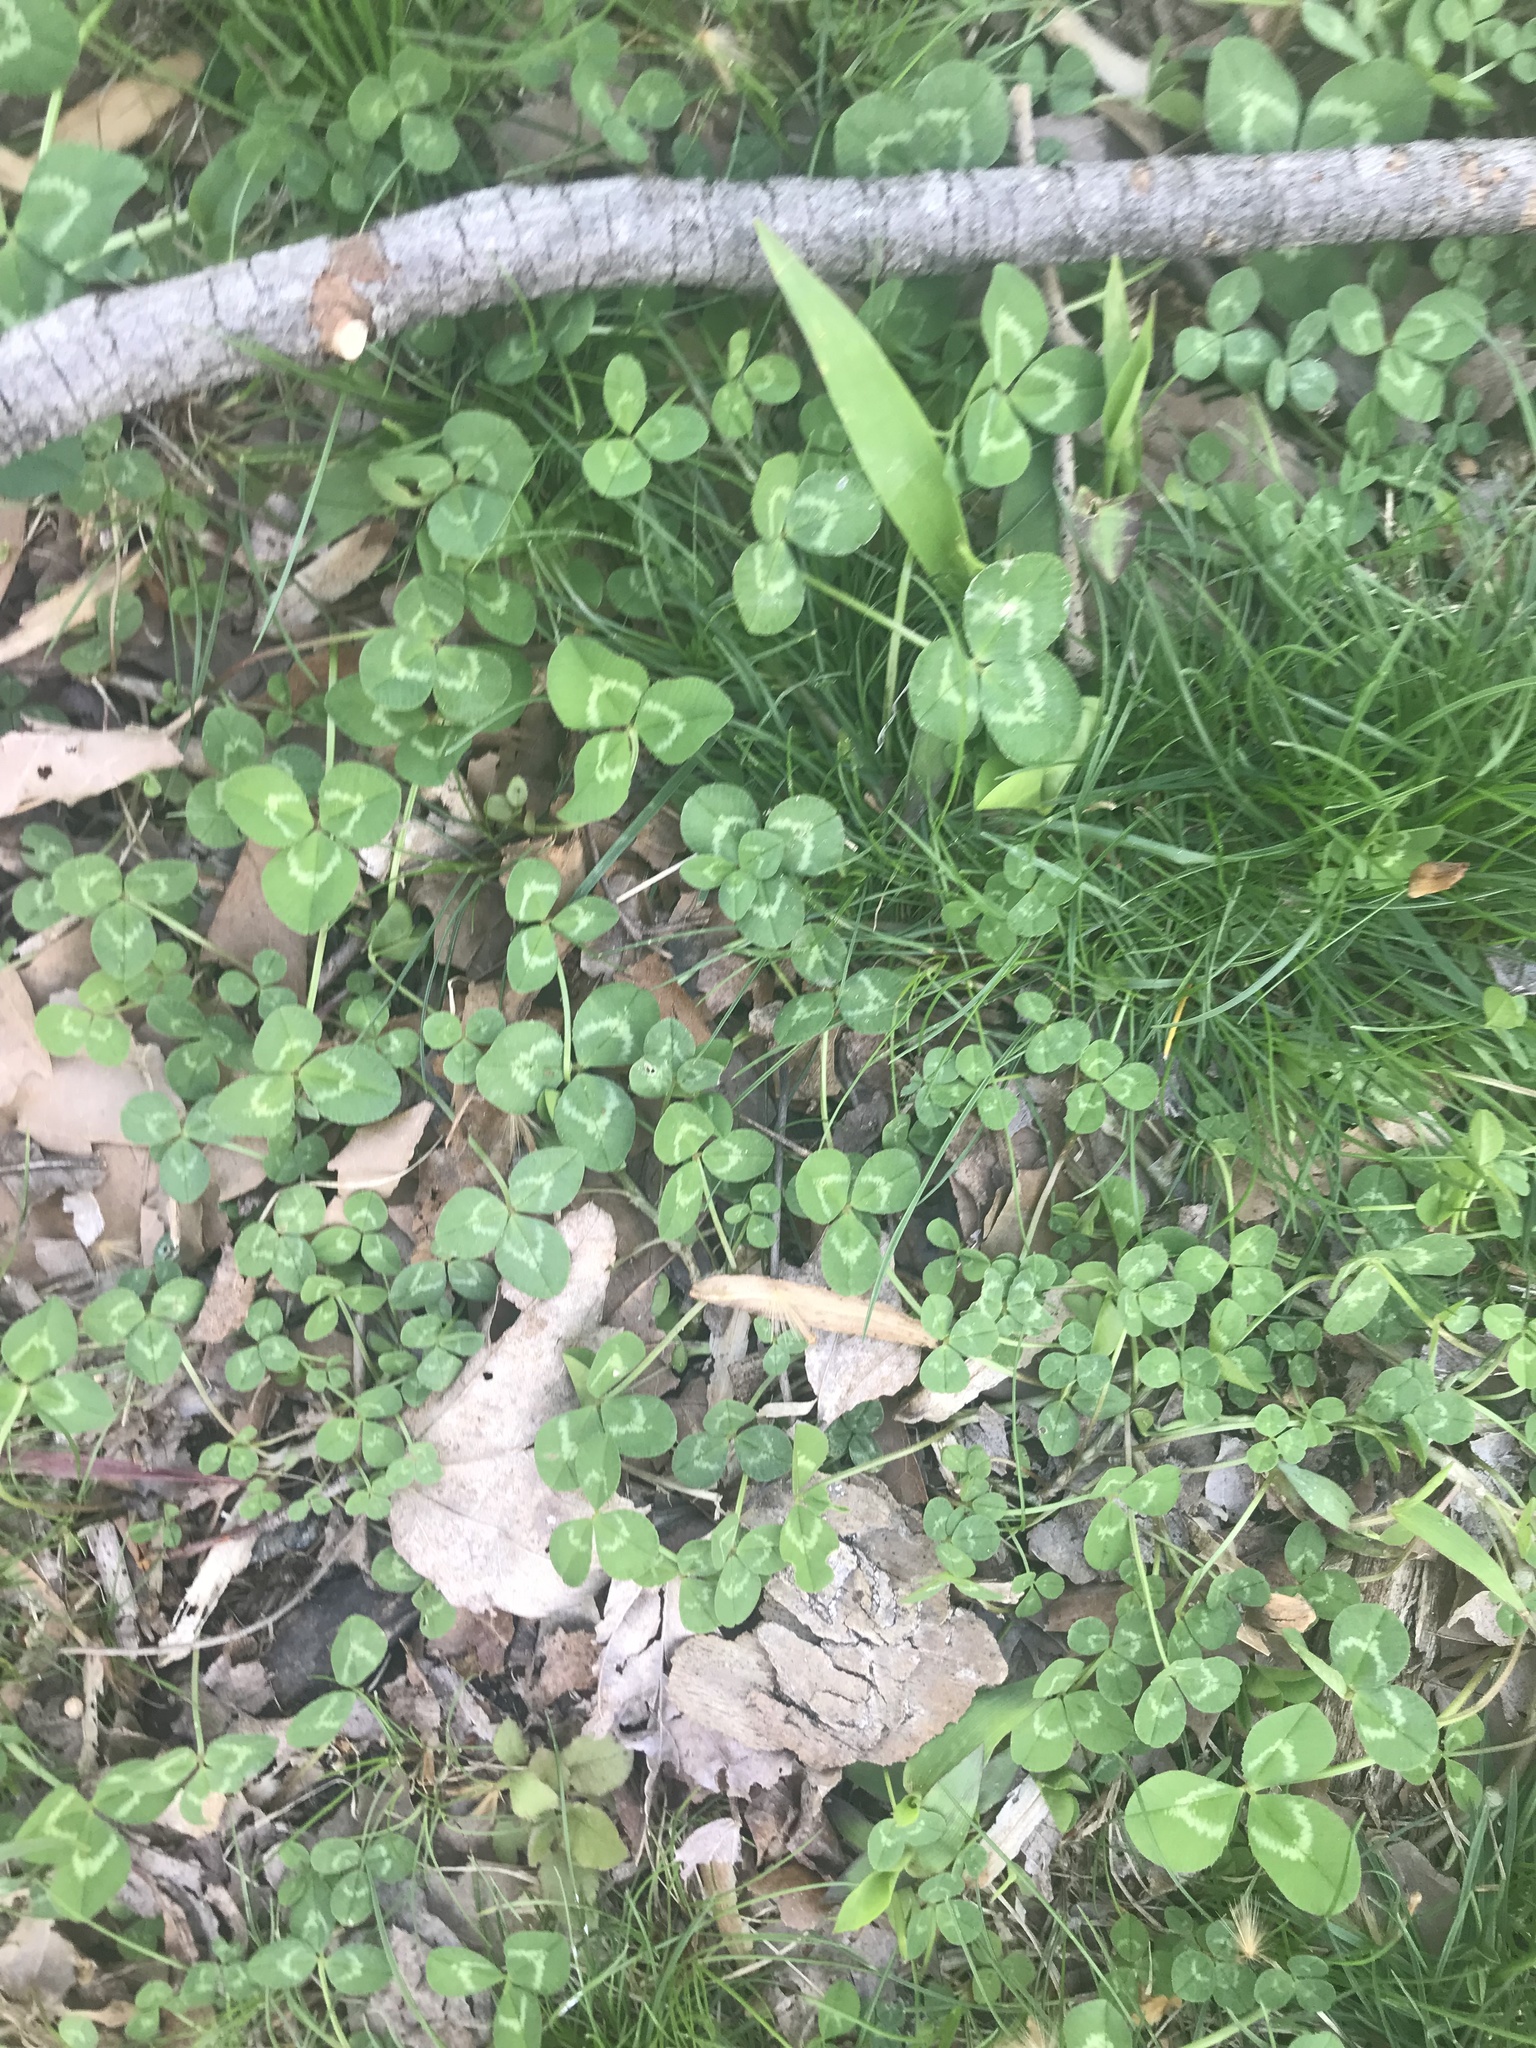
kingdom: Plantae
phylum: Tracheophyta
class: Magnoliopsida
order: Fabales
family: Fabaceae
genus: Trifolium
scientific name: Trifolium repens
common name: White clover
